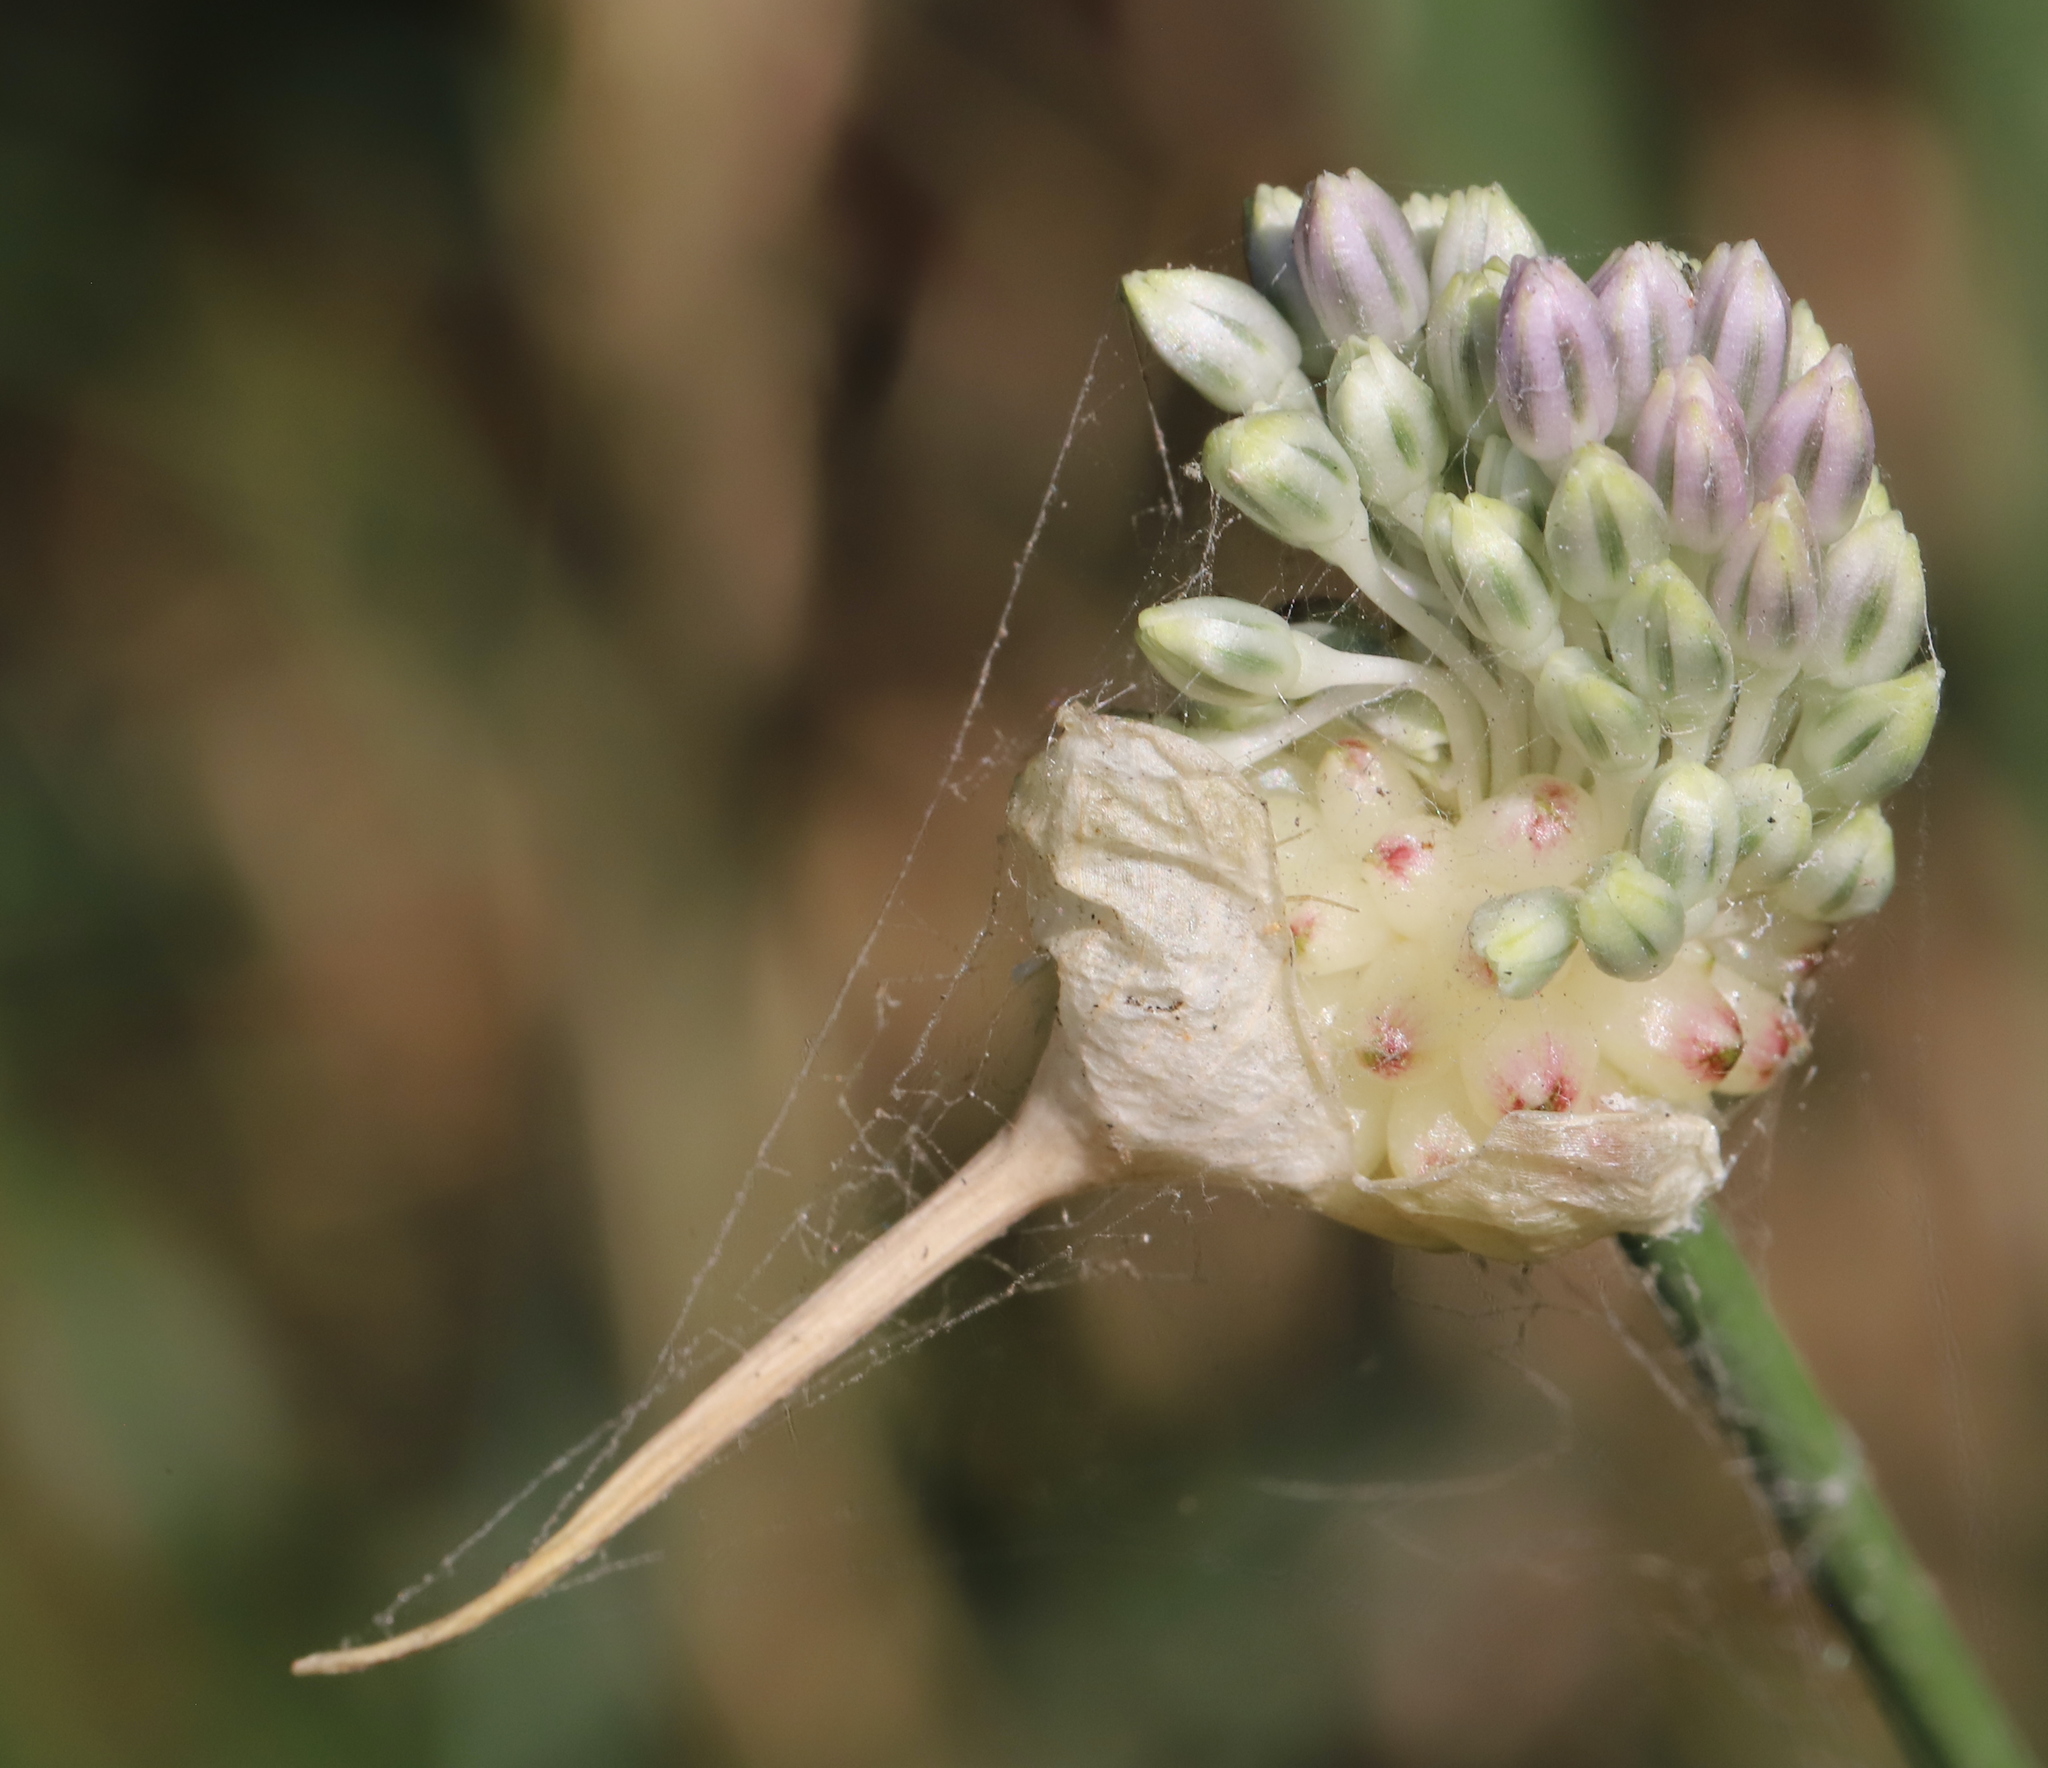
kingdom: Plantae
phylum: Tracheophyta
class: Liliopsida
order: Asparagales
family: Amaryllidaceae
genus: Allium
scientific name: Allium vineale
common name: Crow garlic
